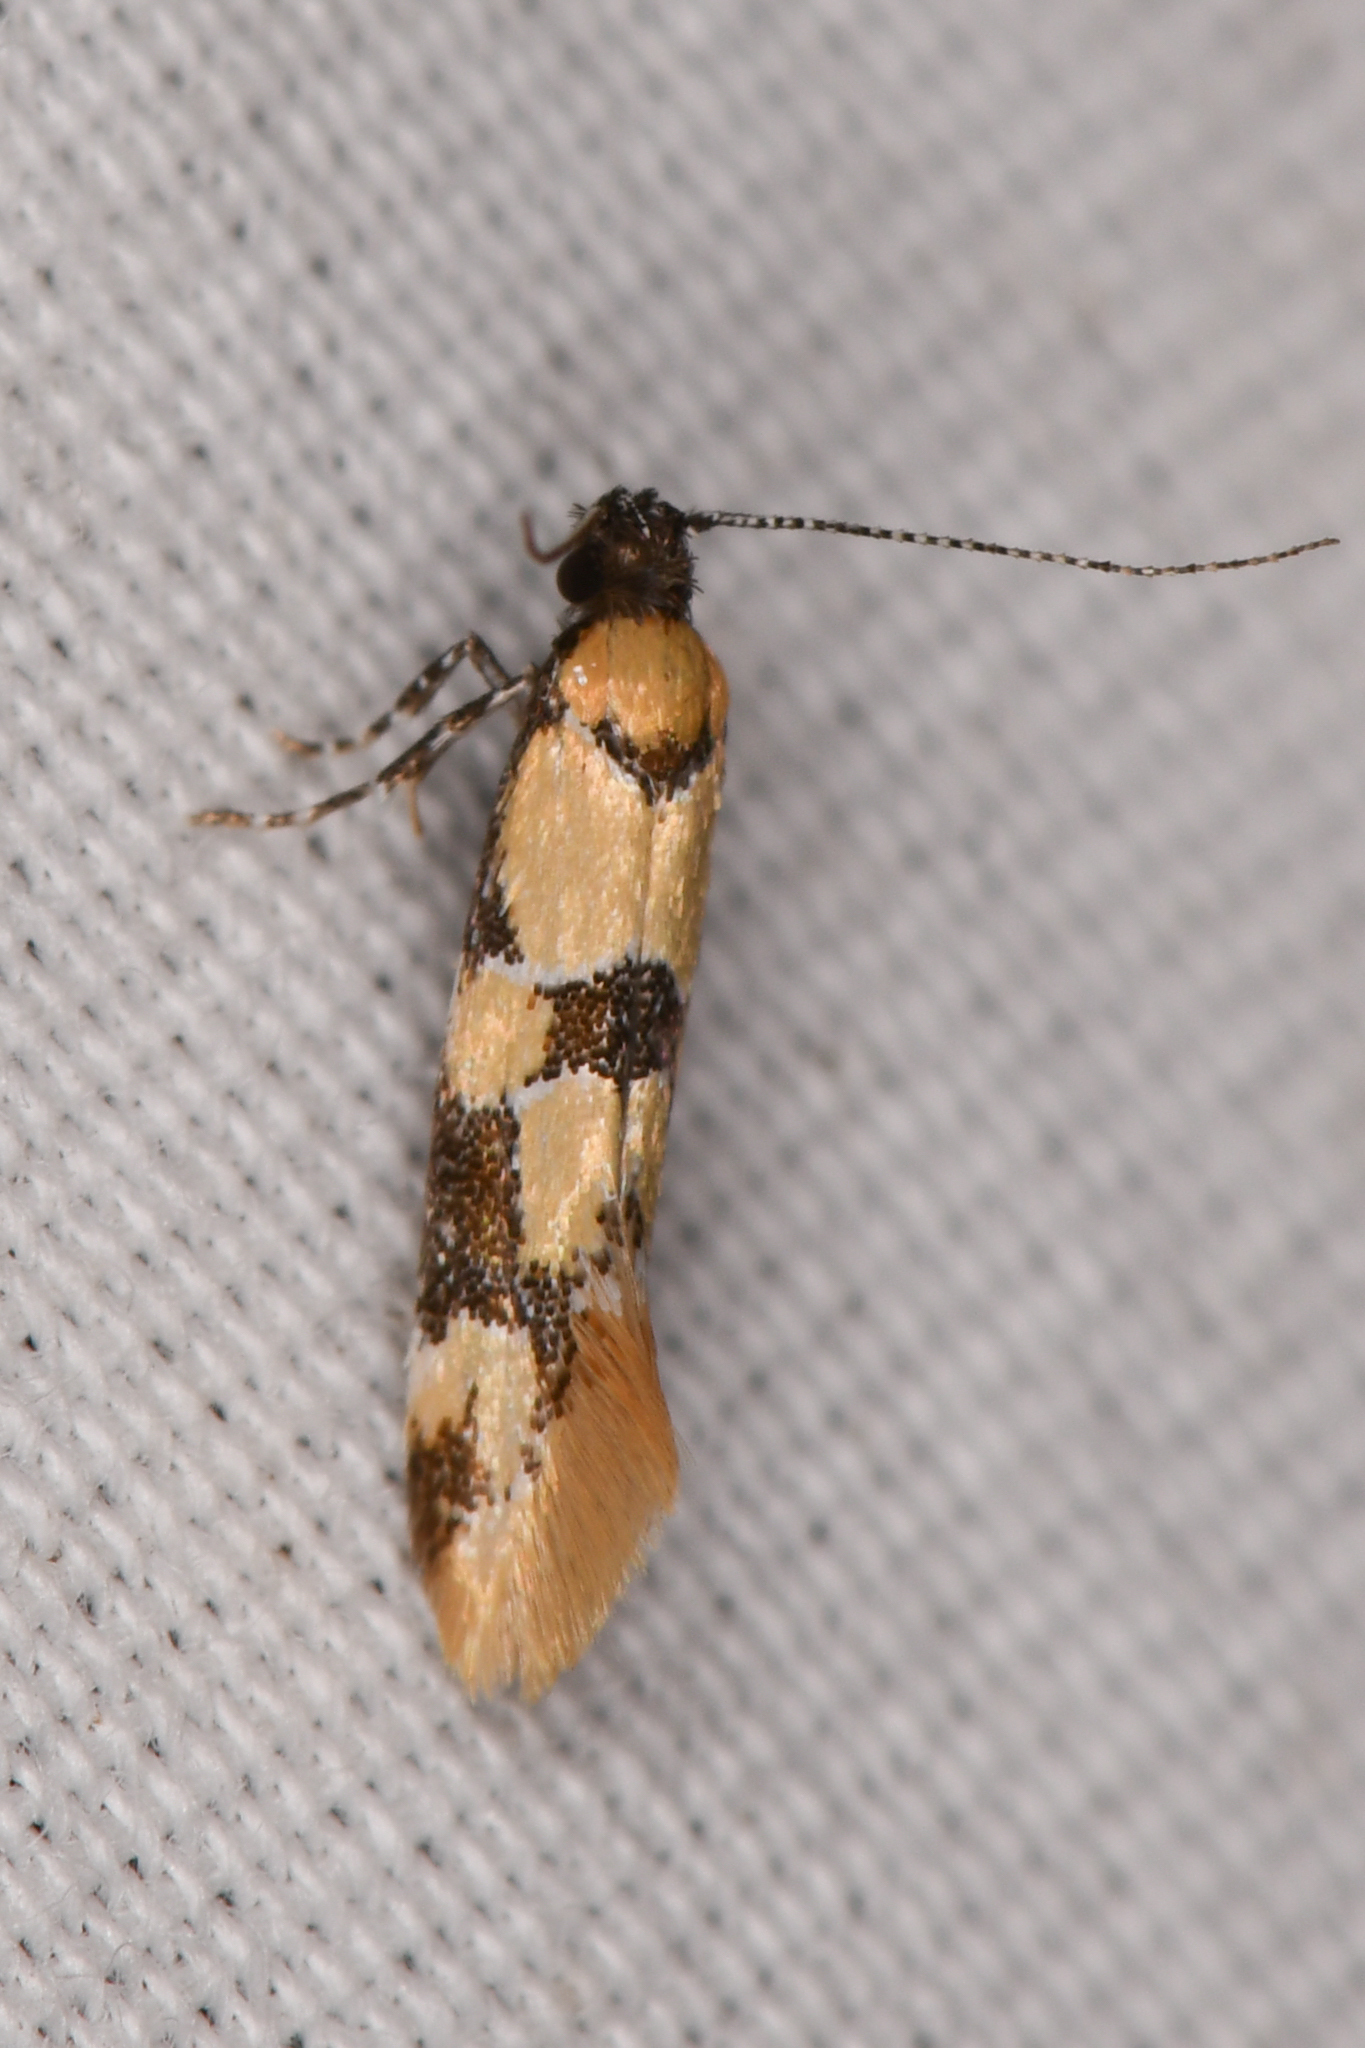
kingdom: Animalia
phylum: Arthropoda
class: Insecta
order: Lepidoptera
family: Oecophoridae
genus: Decantha
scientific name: Decantha stonda
